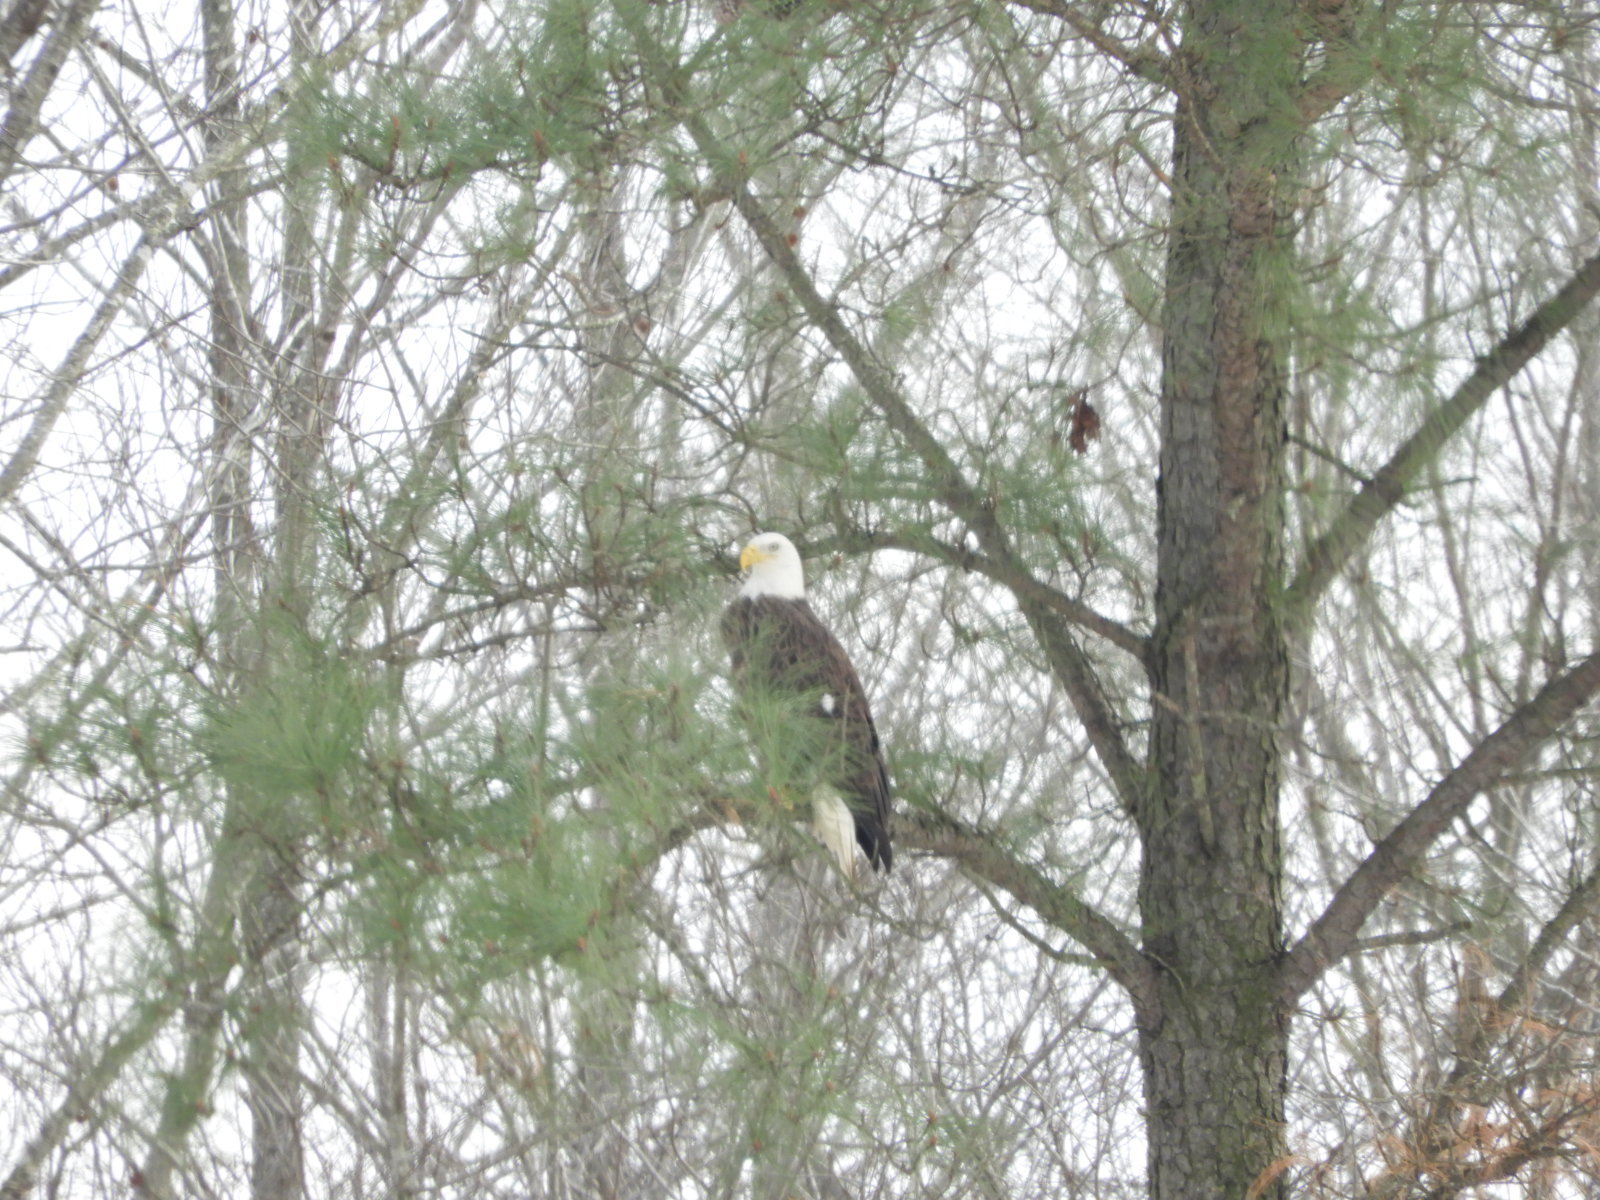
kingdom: Animalia
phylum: Chordata
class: Aves
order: Accipitriformes
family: Accipitridae
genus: Haliaeetus
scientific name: Haliaeetus leucocephalus
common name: Bald eagle
